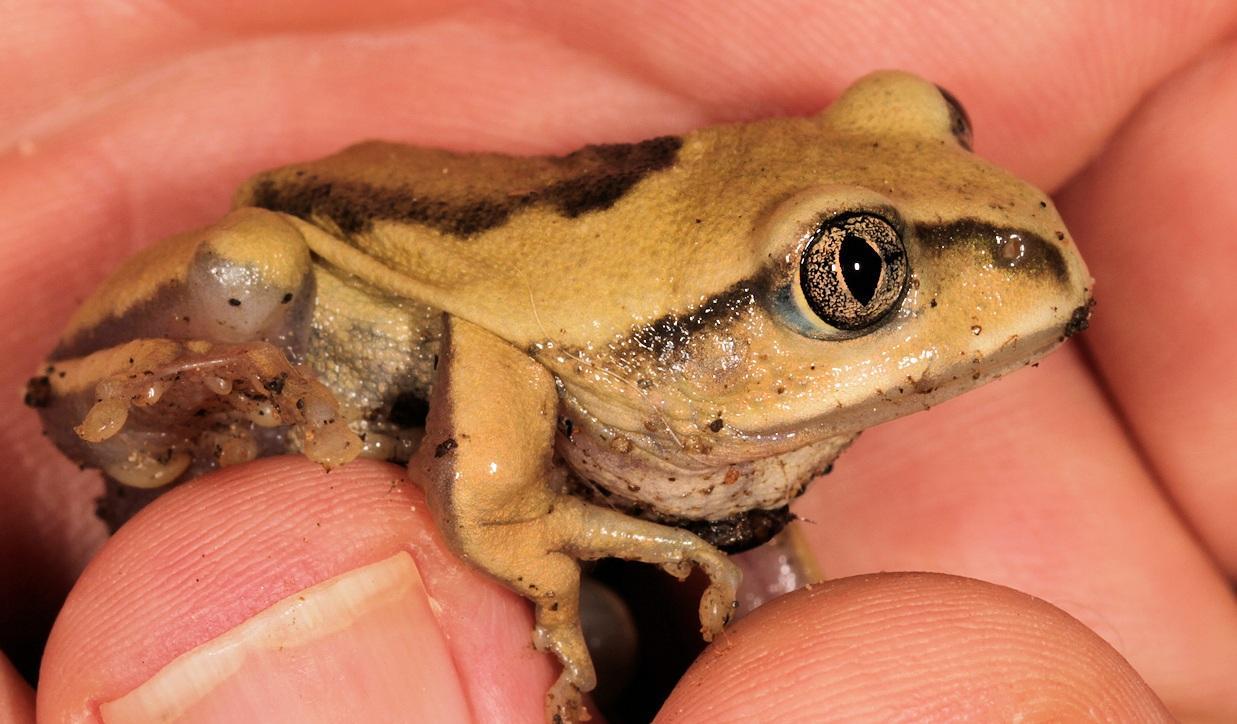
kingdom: Animalia
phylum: Chordata
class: Amphibia
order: Anura
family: Arthroleptidae
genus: Leptopelis
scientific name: Leptopelis mossambicus
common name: Mozambique tree frog
